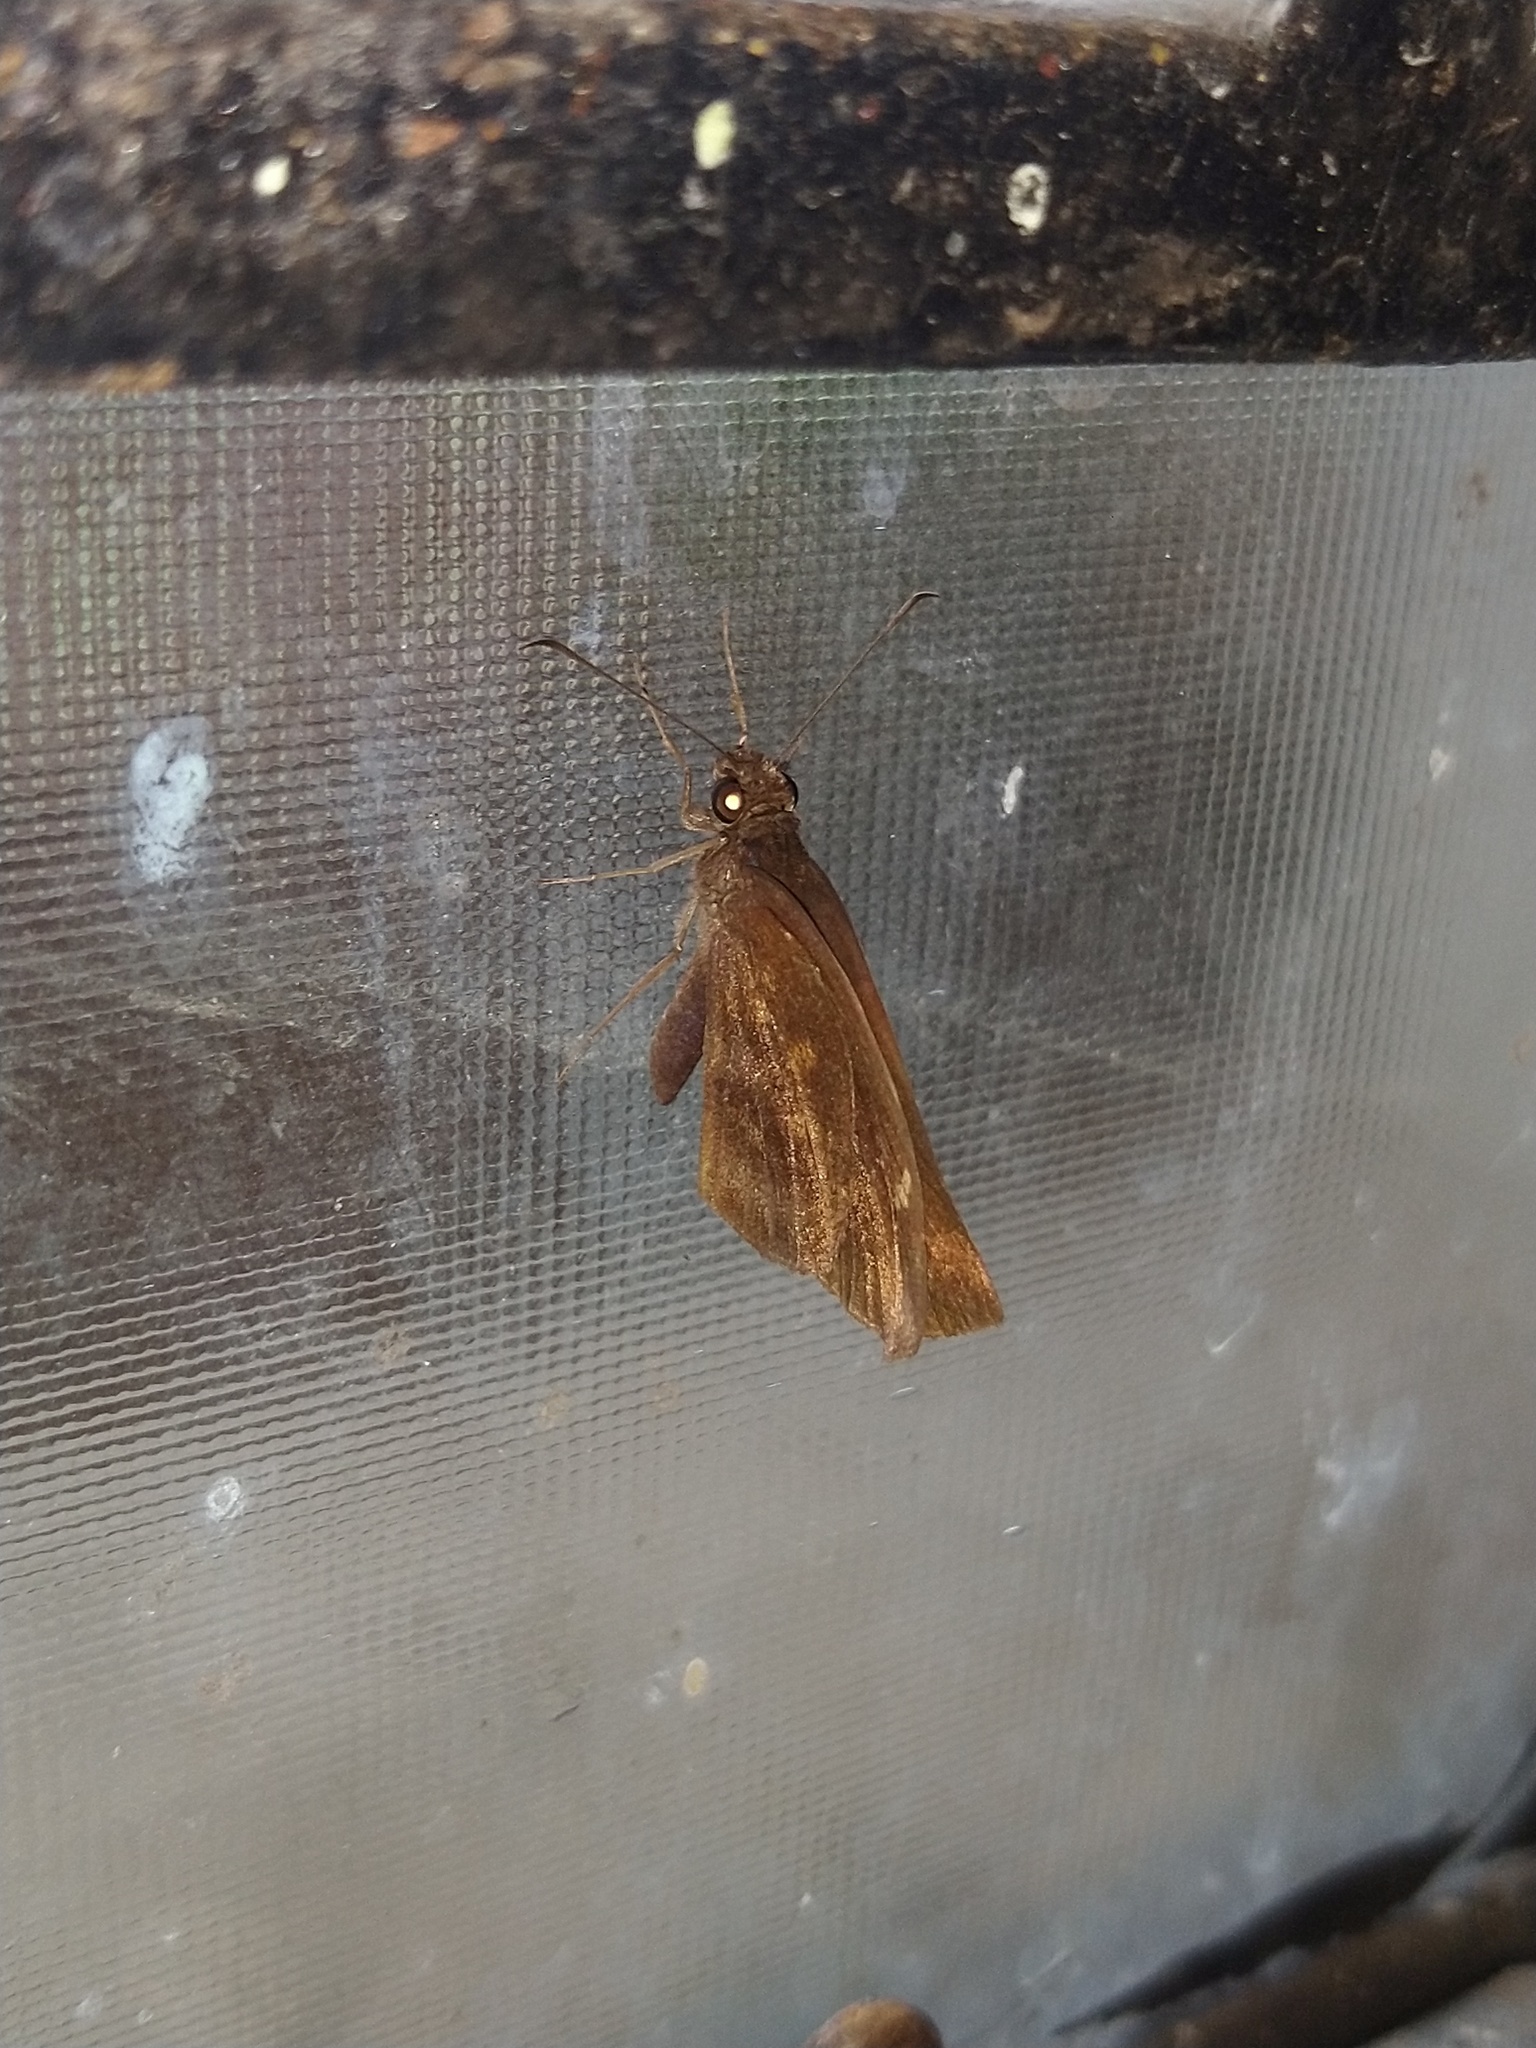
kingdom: Animalia
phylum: Arthropoda
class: Insecta
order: Lepidoptera
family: Hesperiidae
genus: Psolos
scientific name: Psolos fuligo
